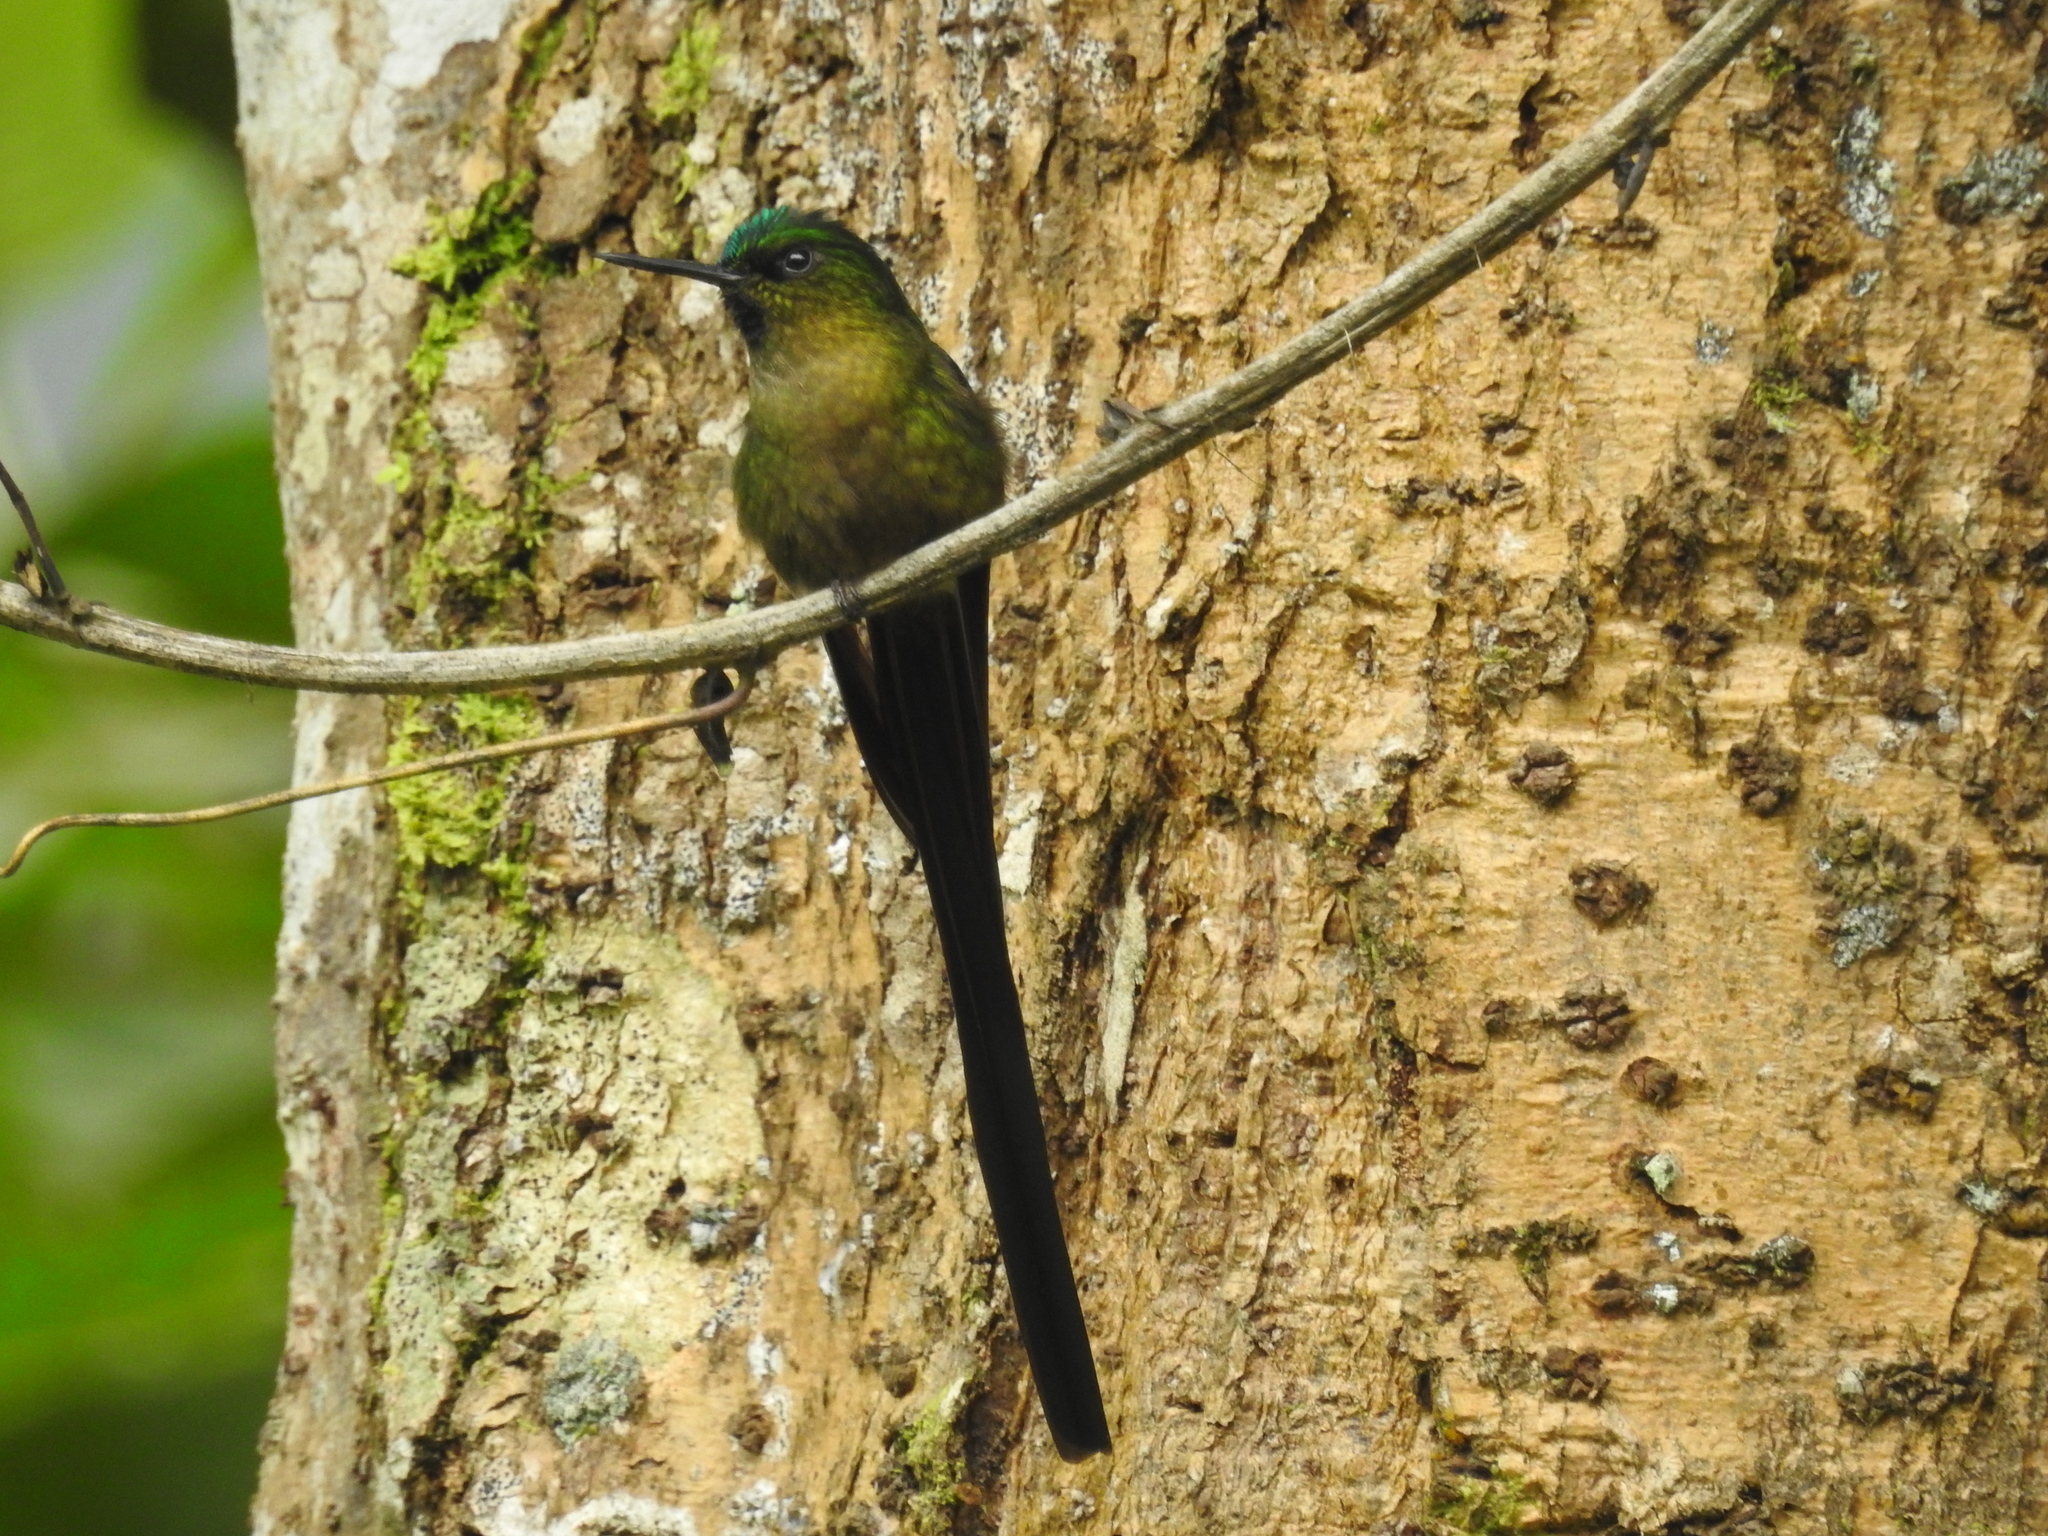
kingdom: Animalia
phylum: Chordata
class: Aves
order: Apodiformes
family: Trochilidae
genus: Aglaiocercus
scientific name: Aglaiocercus coelestis
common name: Violet-tailed sylph
